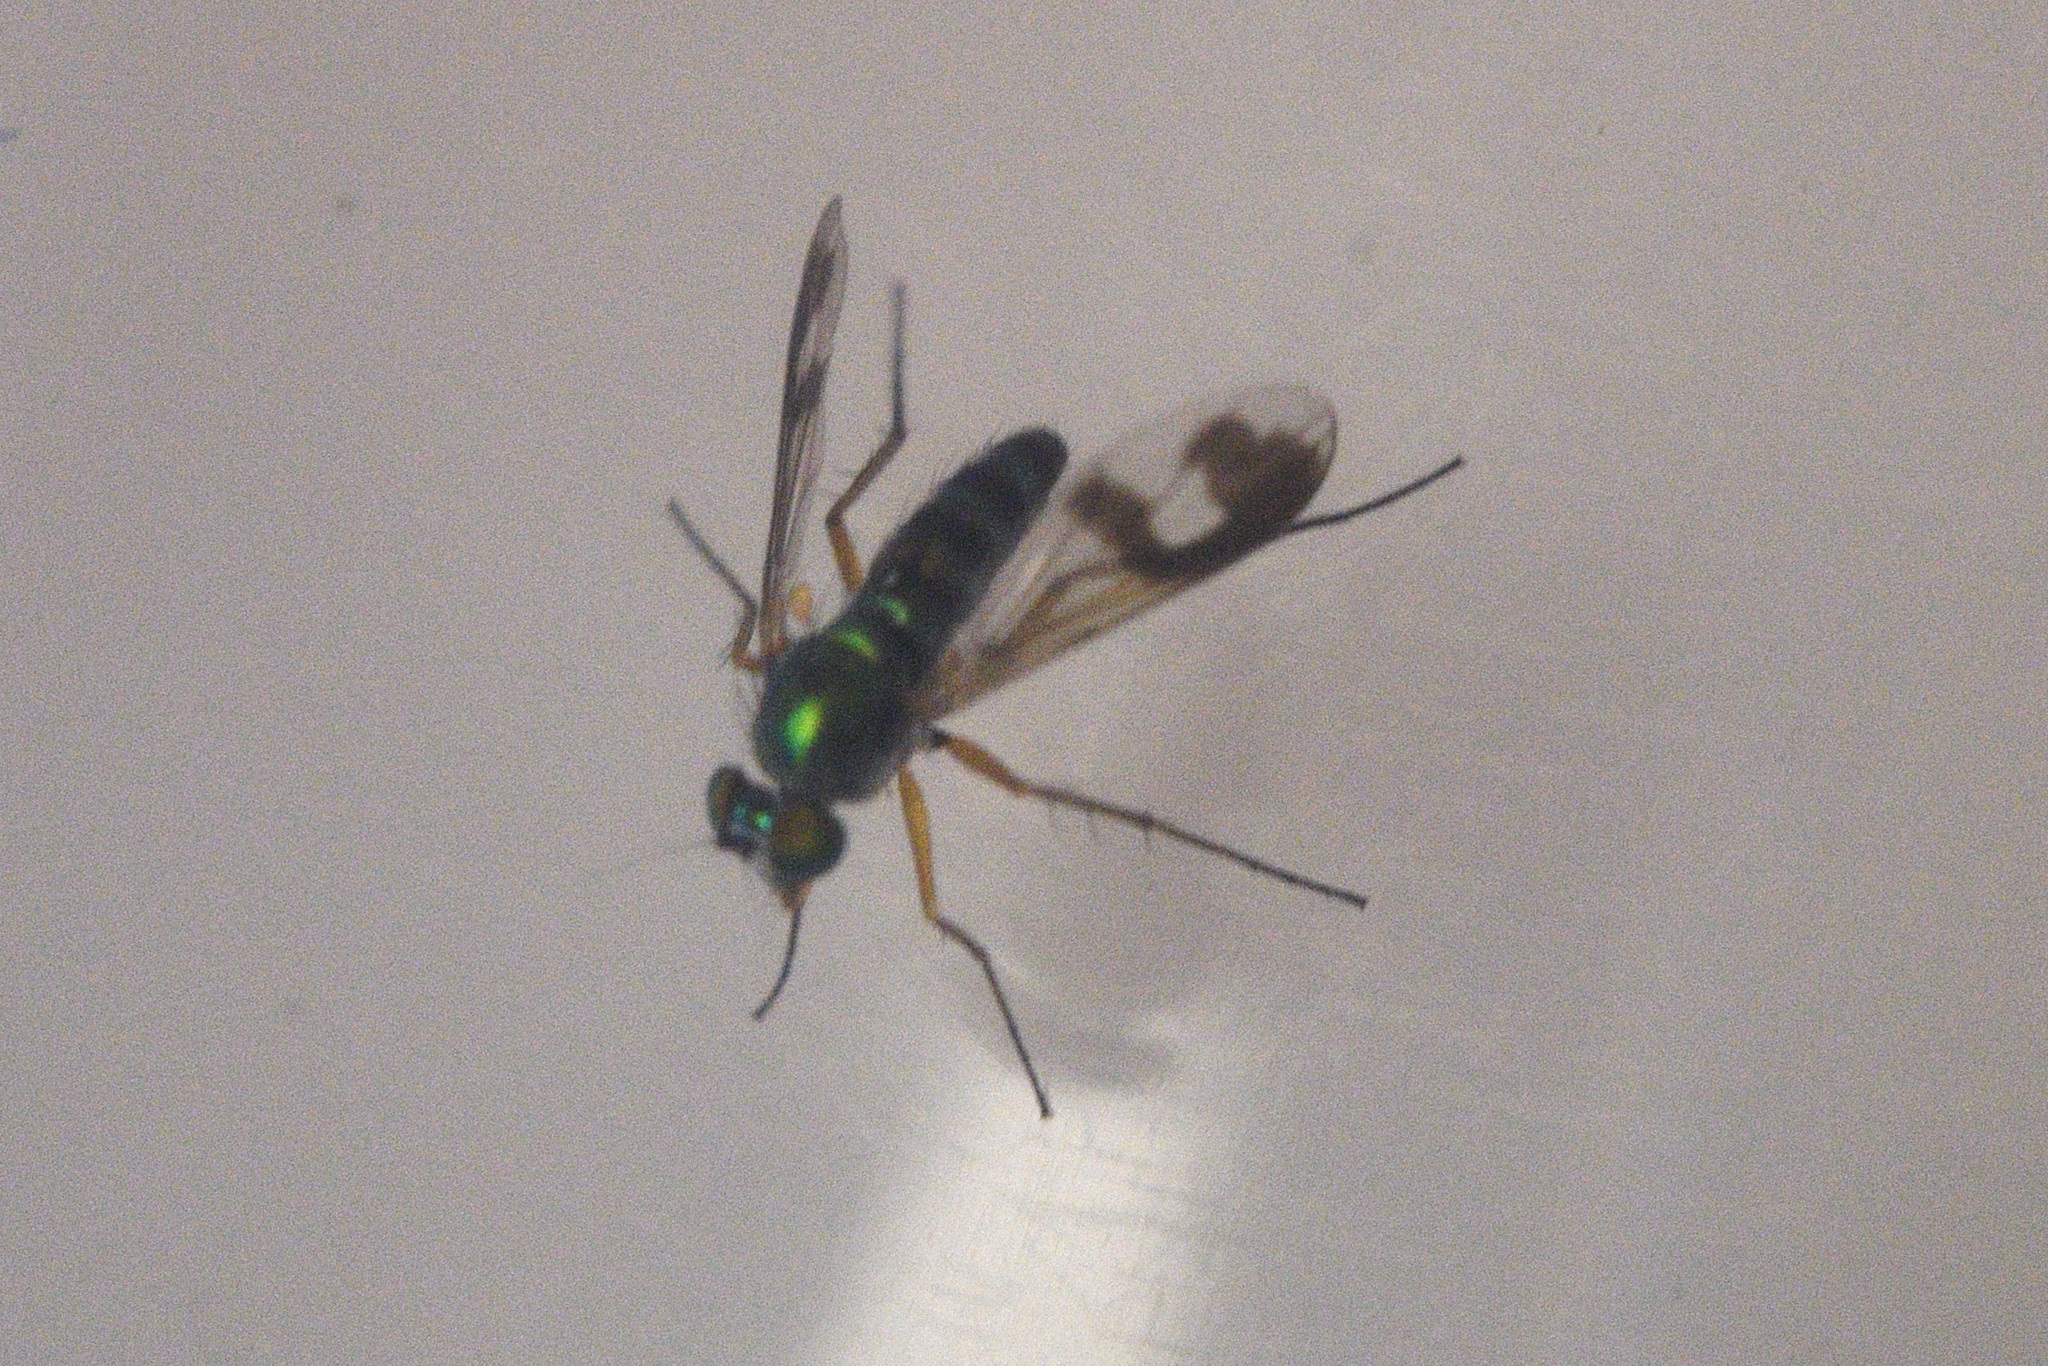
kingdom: Animalia
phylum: Arthropoda
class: Insecta
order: Diptera
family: Dolichopodidae
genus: Austrosciapus
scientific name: Austrosciapus proximus
